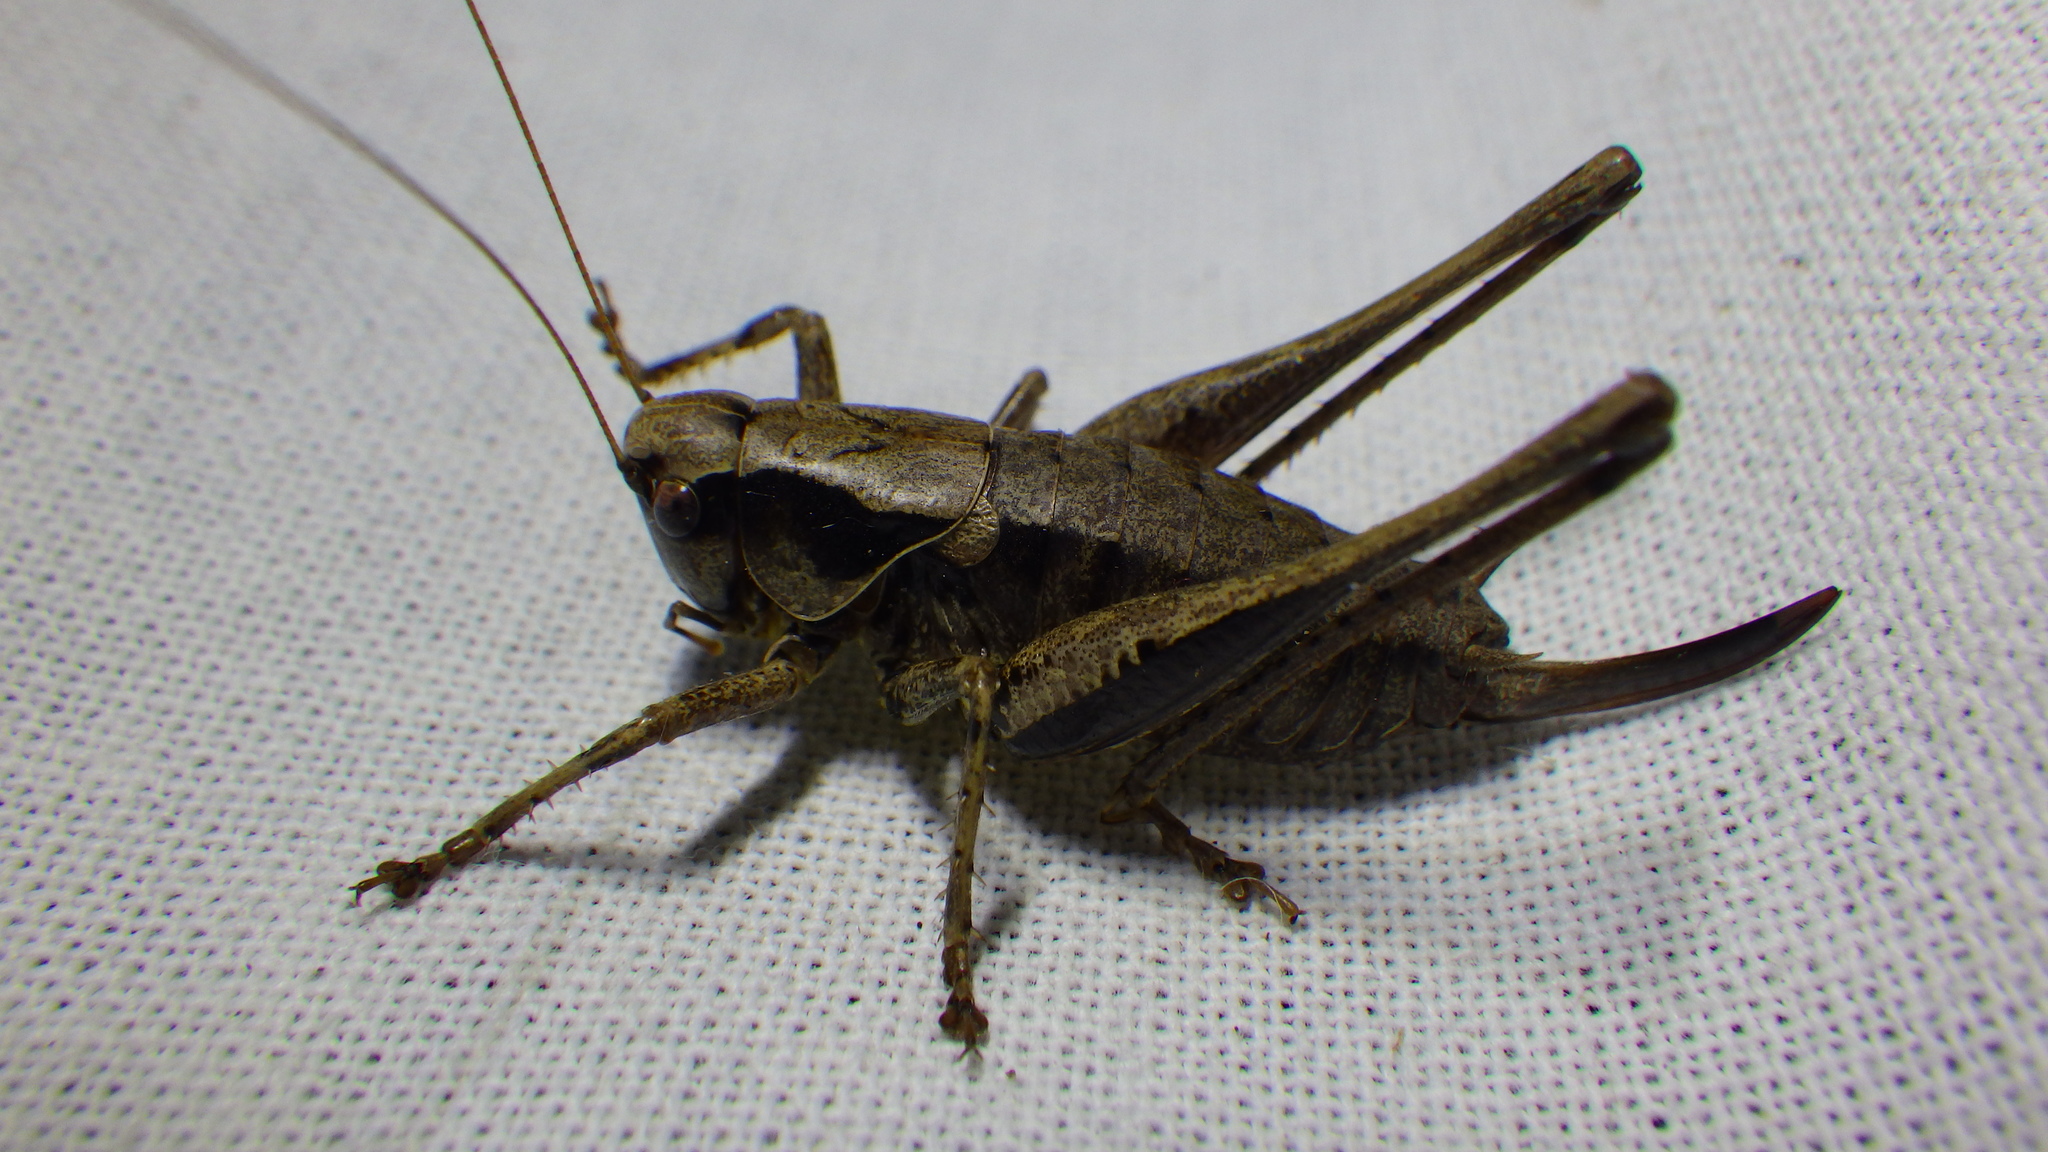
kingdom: Animalia
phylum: Arthropoda
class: Insecta
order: Orthoptera
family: Tettigoniidae
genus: Pholidoptera
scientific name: Pholidoptera griseoaptera
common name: Dark bush-cricket
